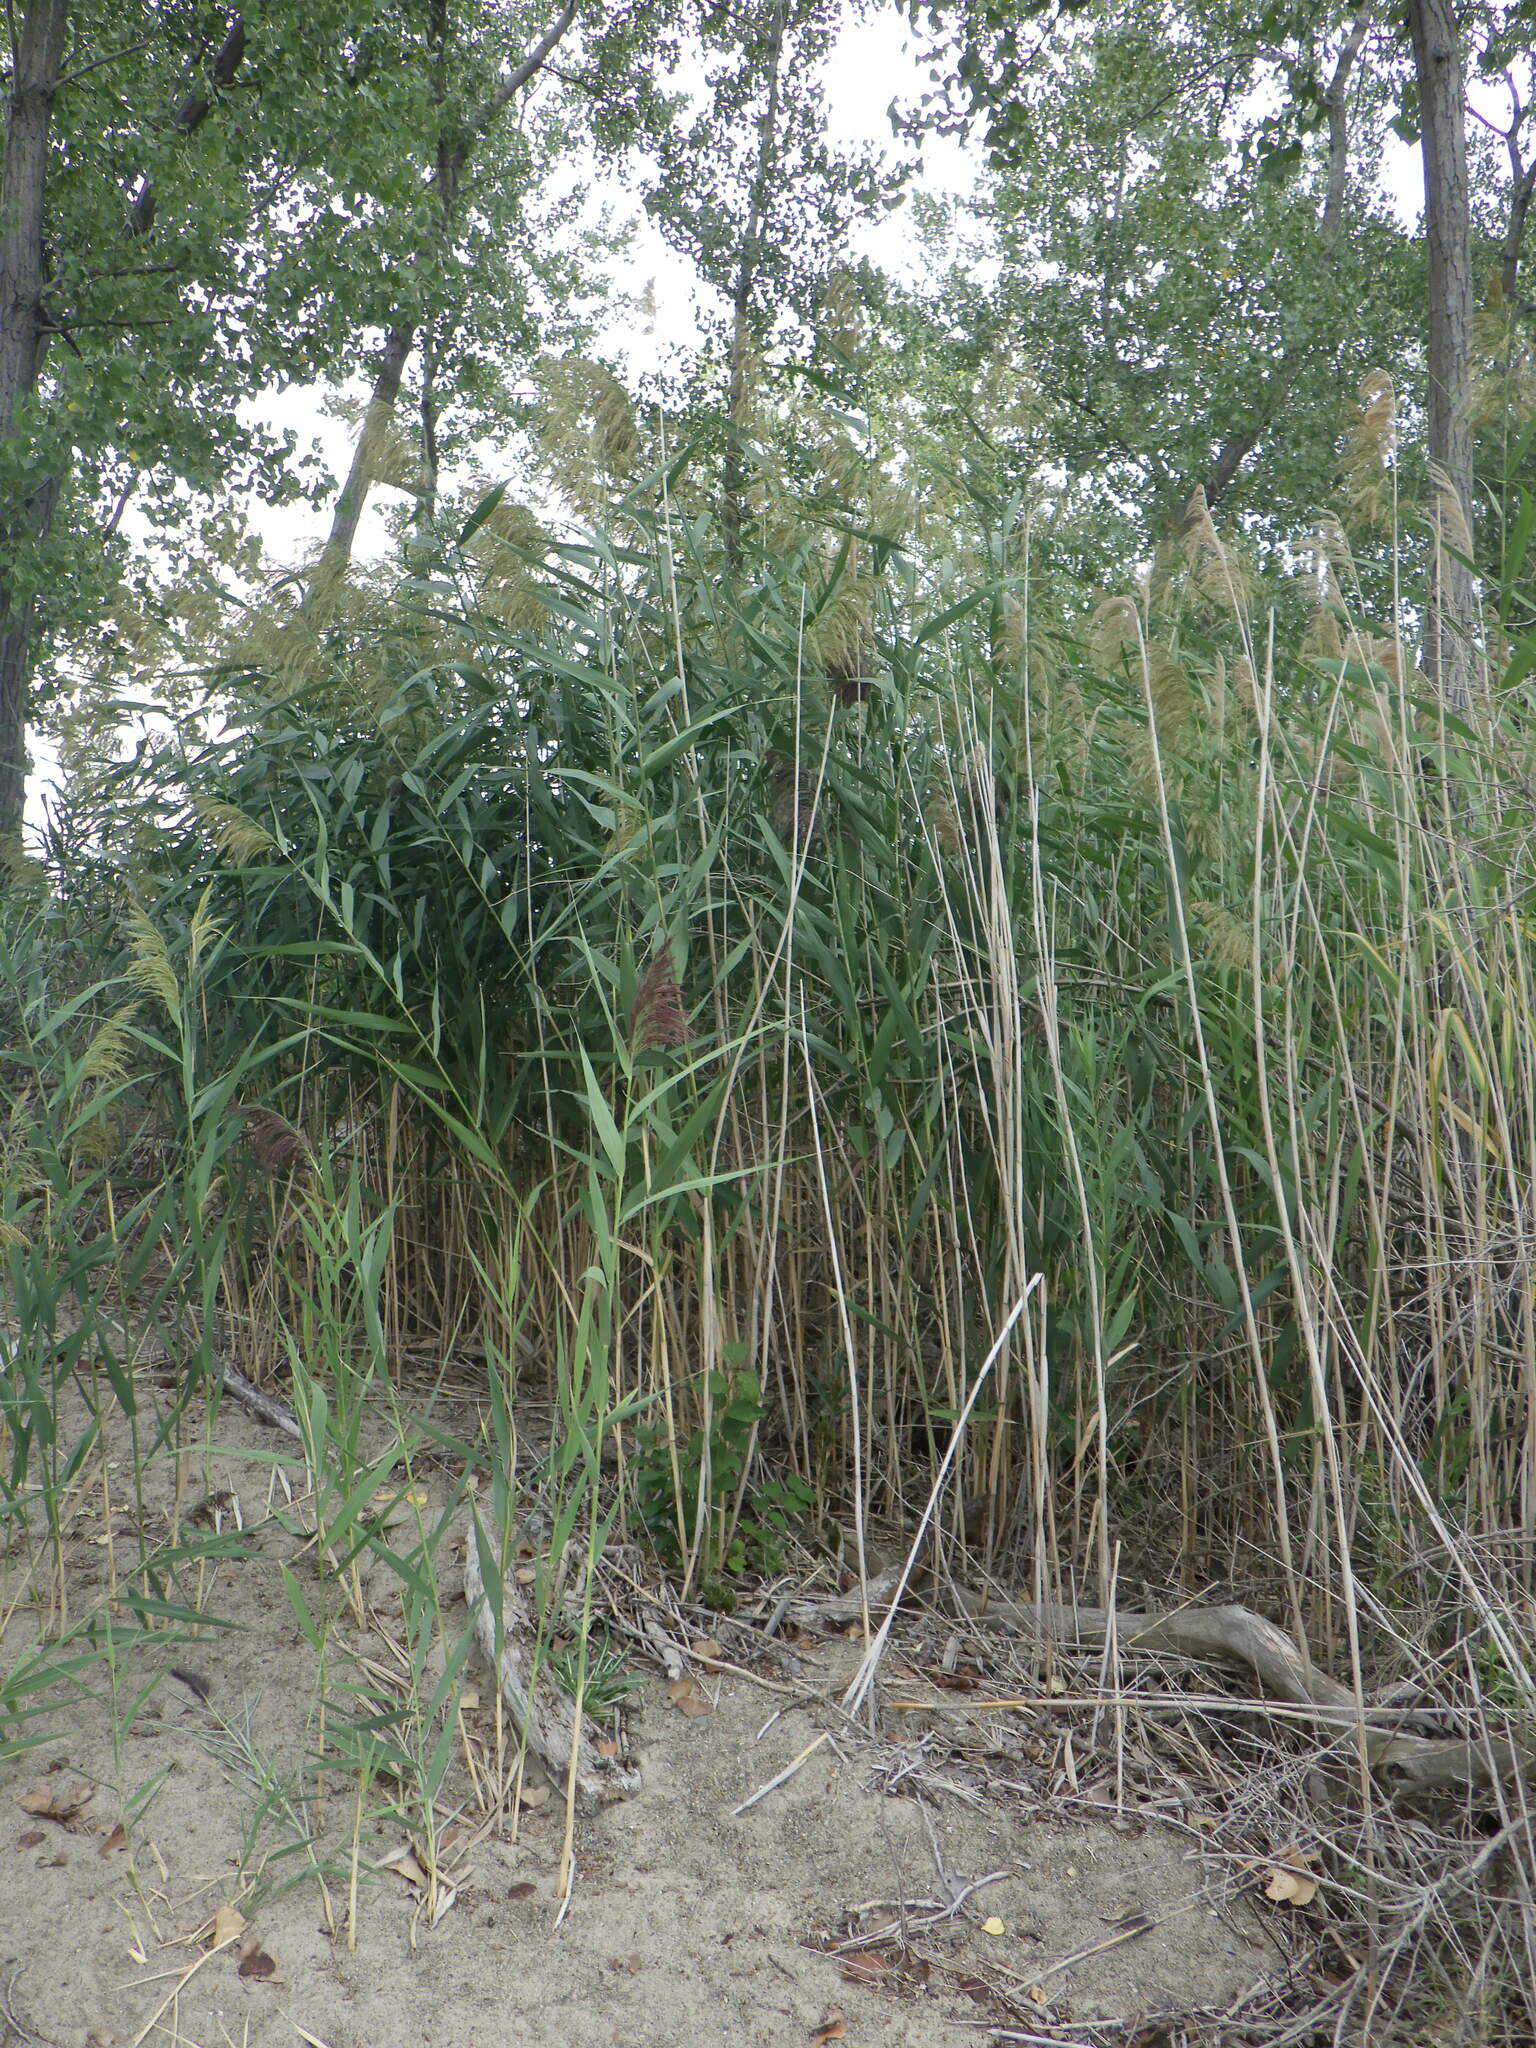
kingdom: Plantae
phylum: Tracheophyta
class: Liliopsida
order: Poales
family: Poaceae
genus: Phragmites
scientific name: Phragmites australis
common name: Common reed
